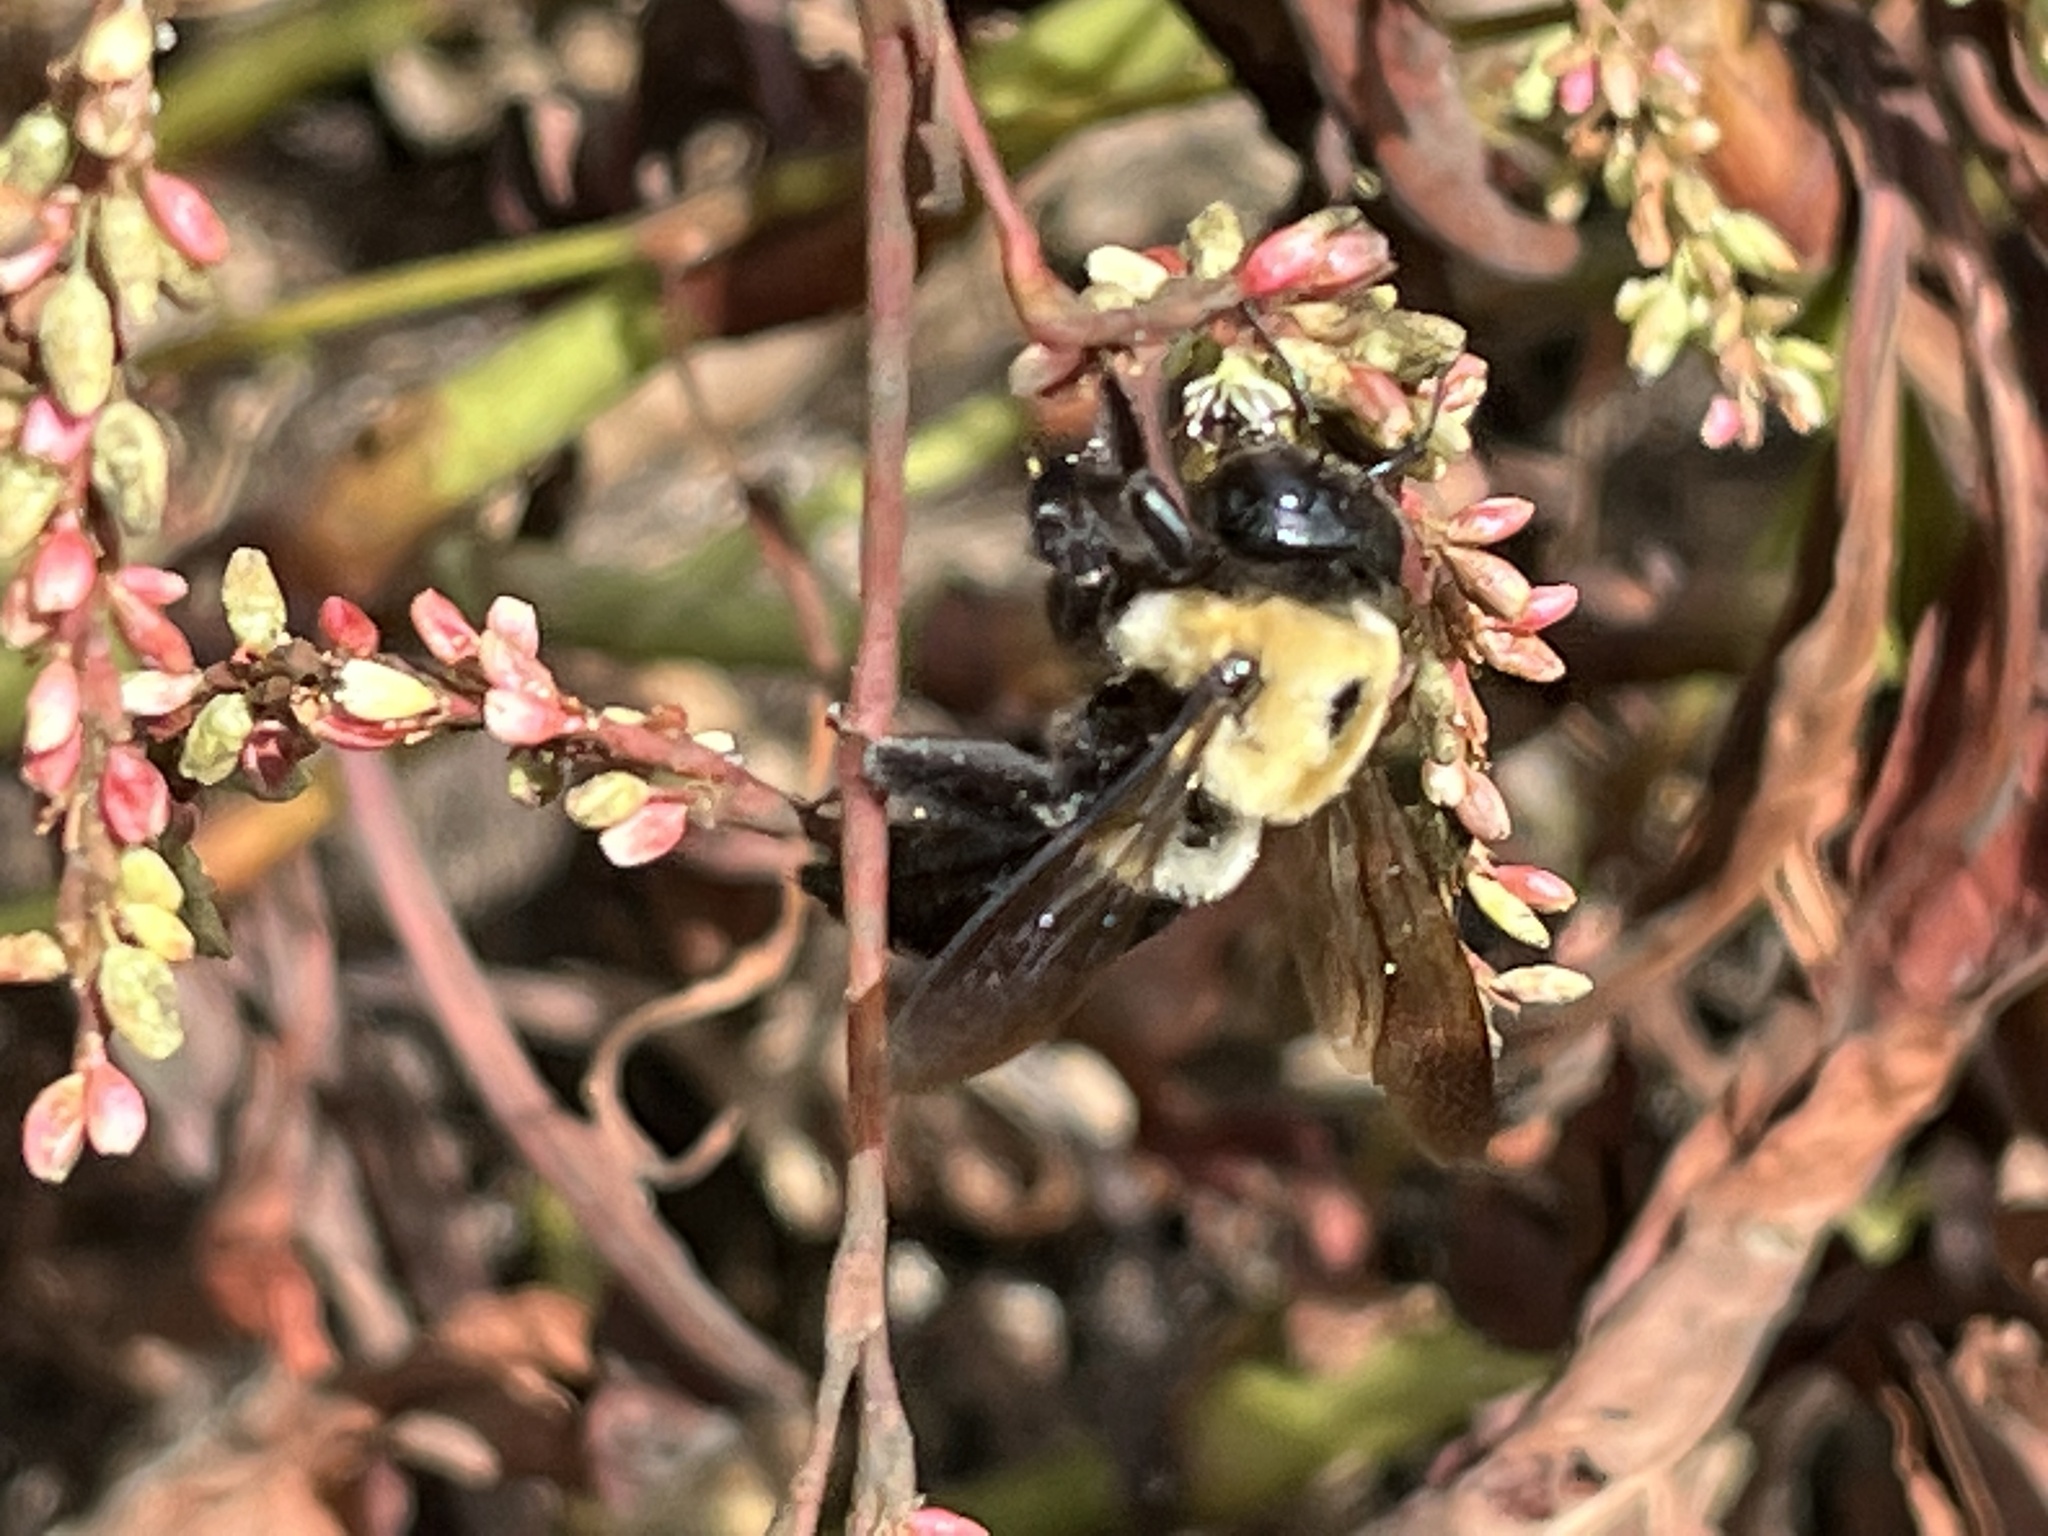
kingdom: Animalia
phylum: Arthropoda
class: Insecta
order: Hymenoptera
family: Apidae
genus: Xylocopa
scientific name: Xylocopa virginica
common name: Carpenter bee
